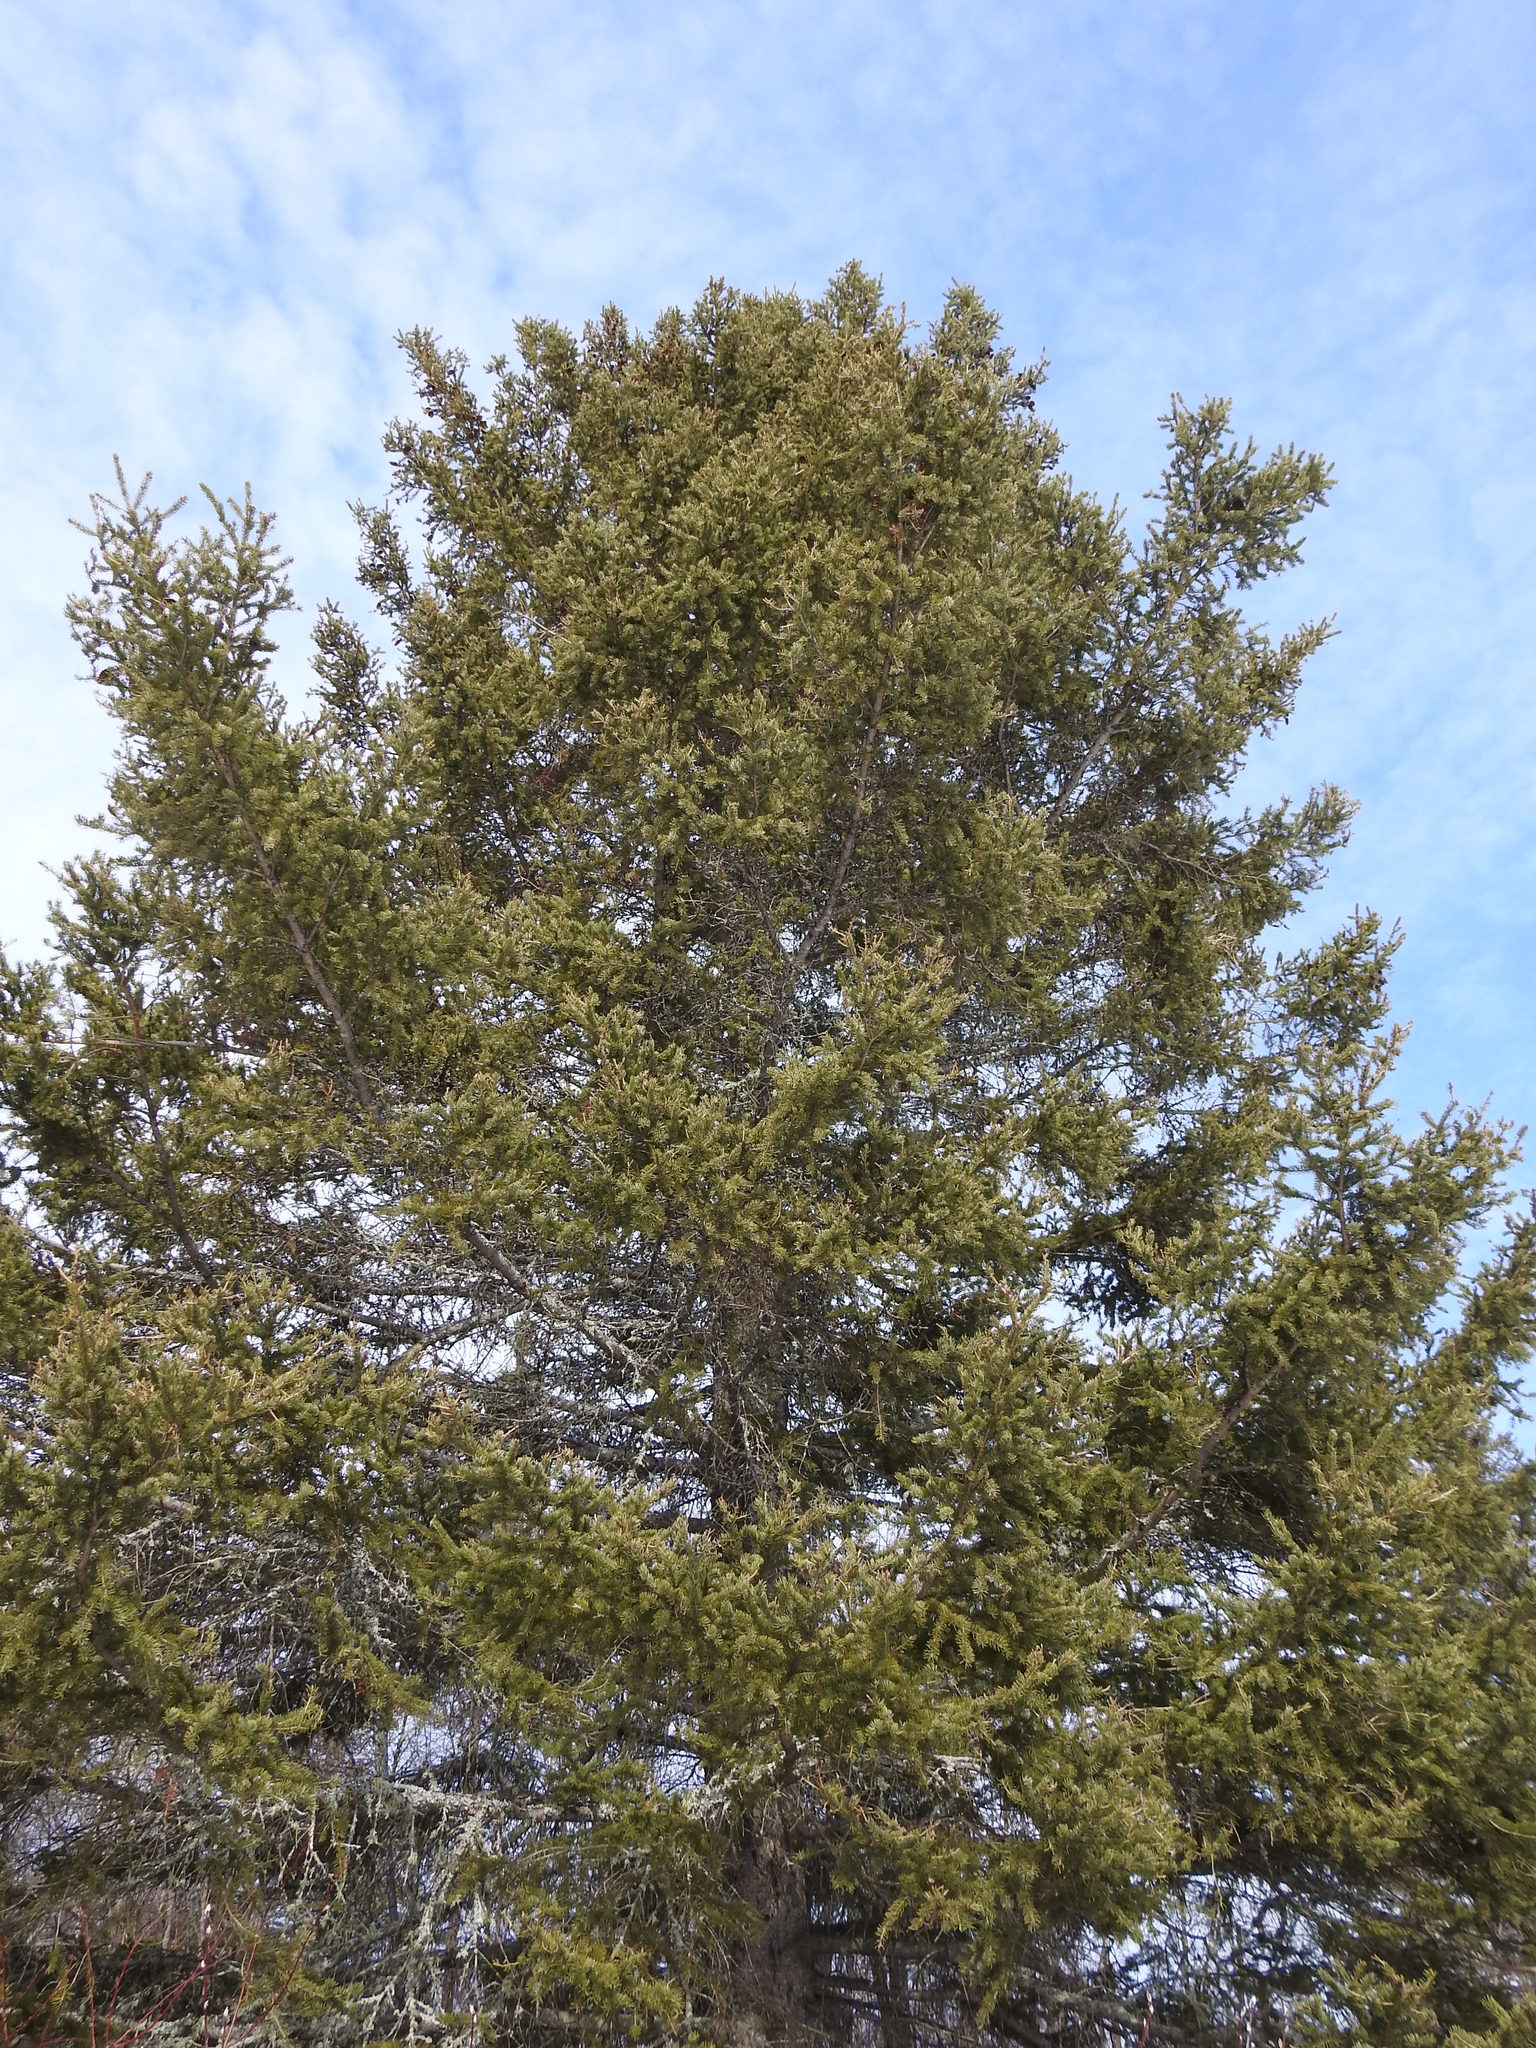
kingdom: Plantae
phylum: Tracheophyta
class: Pinopsida
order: Pinales
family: Pinaceae
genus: Picea
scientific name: Picea glauca
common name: White spruce
